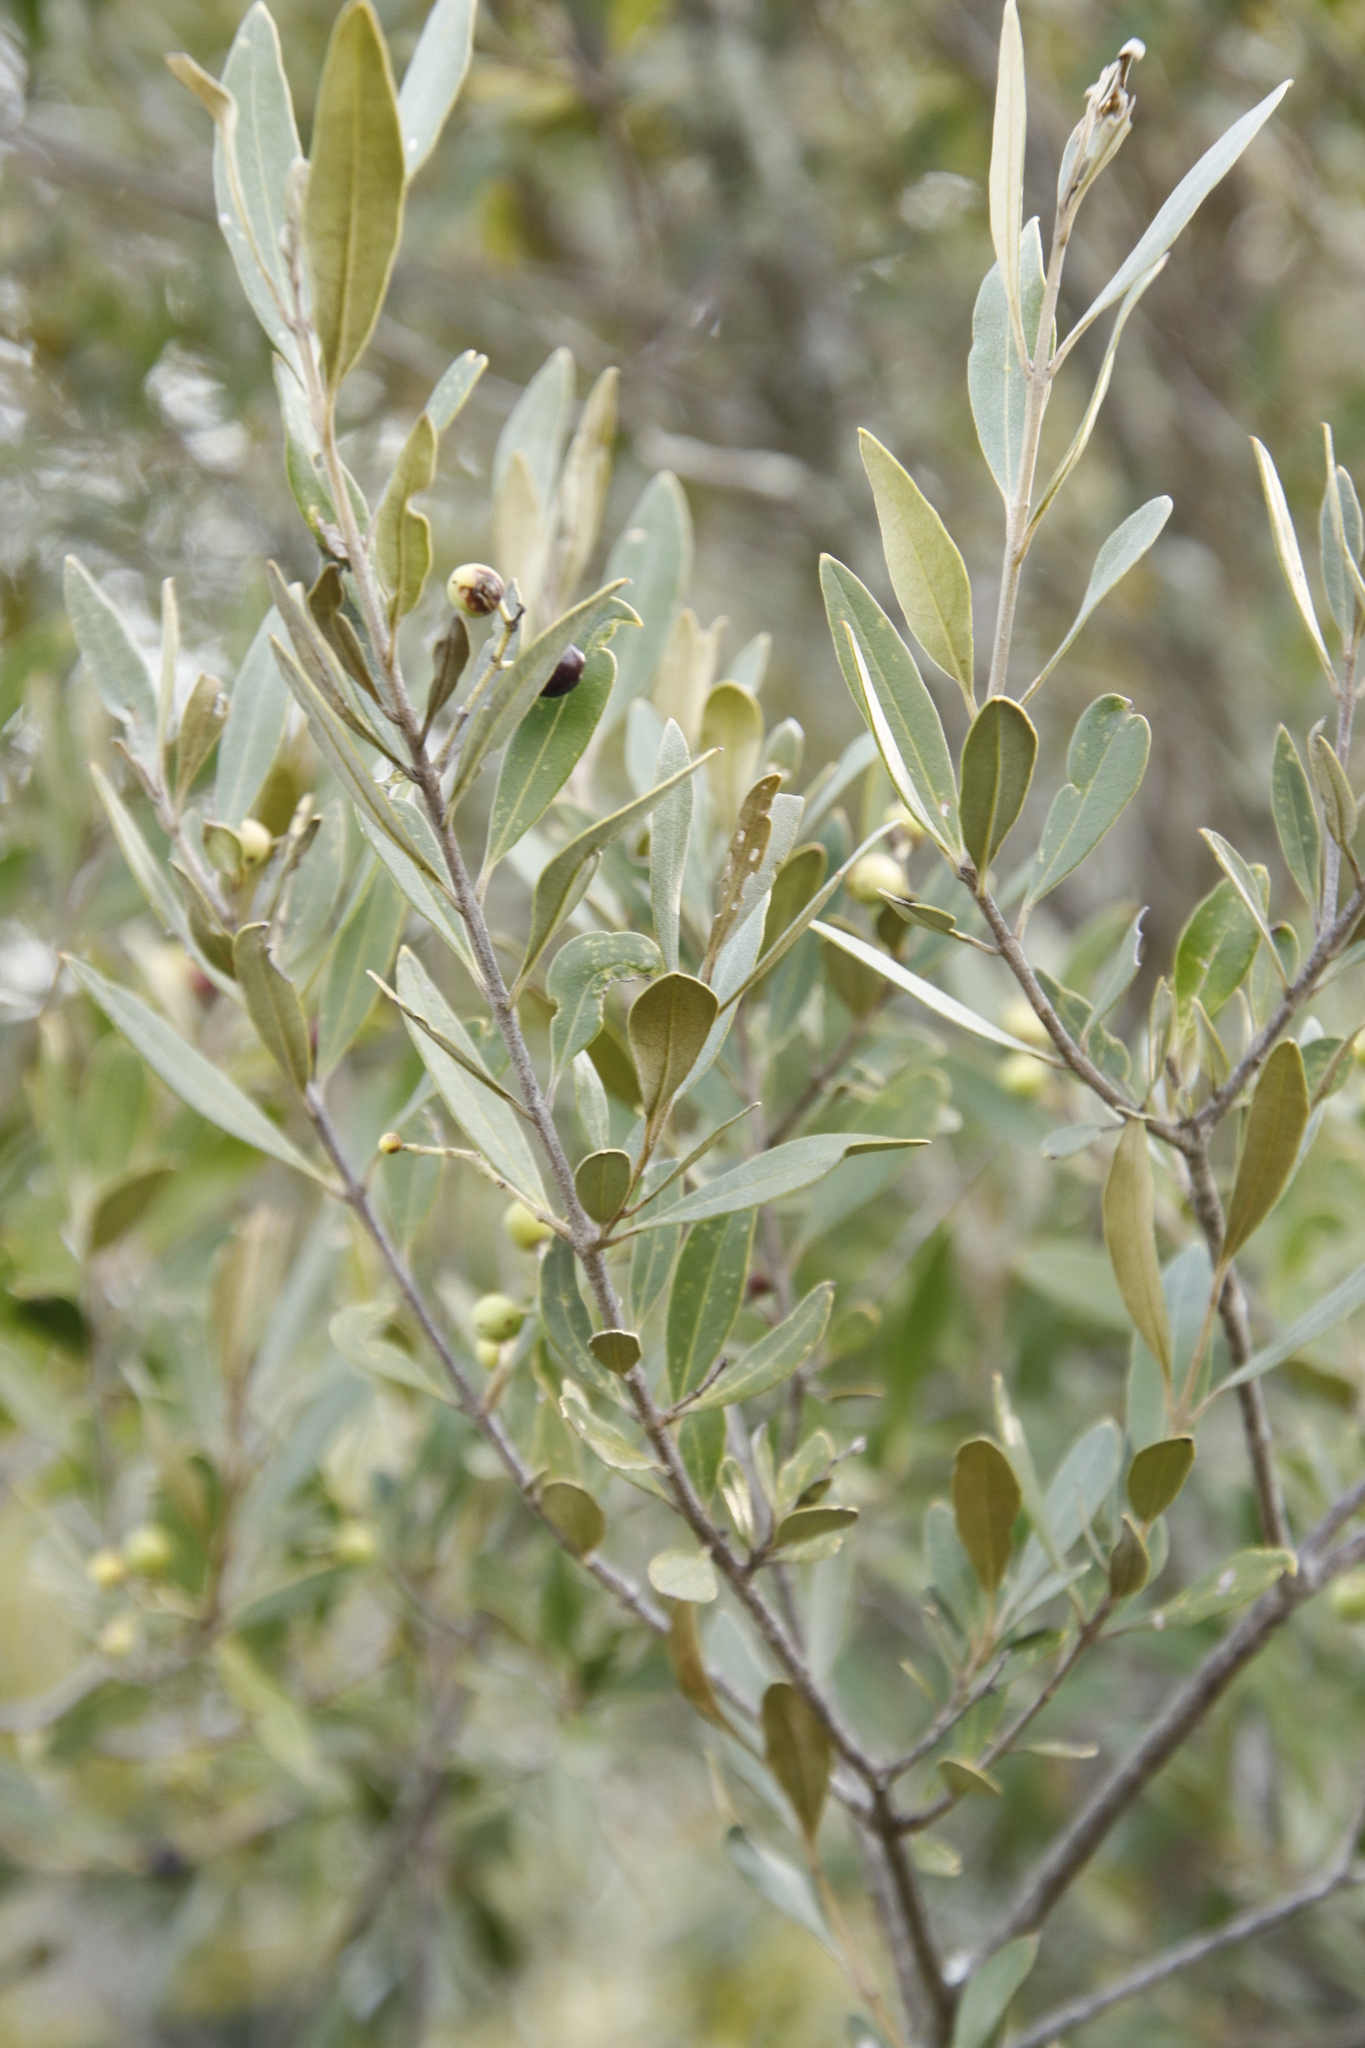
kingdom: Plantae
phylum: Tracheophyta
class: Magnoliopsida
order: Lamiales
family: Oleaceae
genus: Olea
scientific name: Olea europaea
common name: Olive
